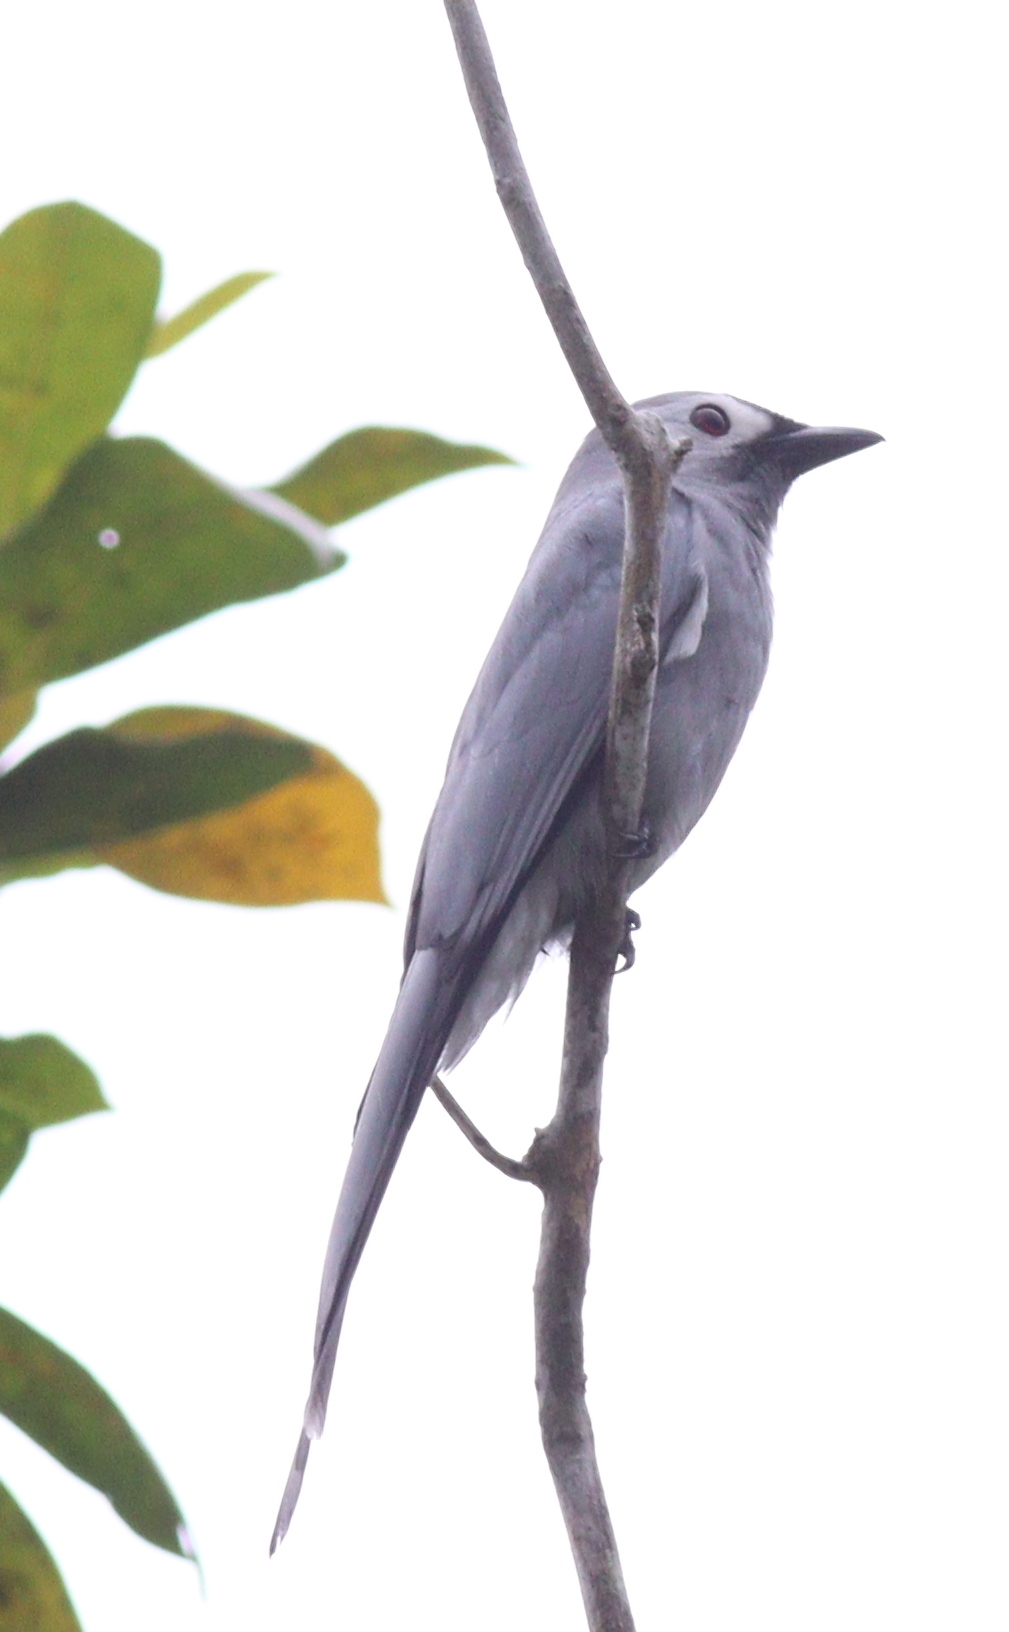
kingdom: Animalia
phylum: Chordata
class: Aves
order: Passeriformes
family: Dicruridae
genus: Dicrurus
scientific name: Dicrurus leucophaeus
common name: Ashy drongo
